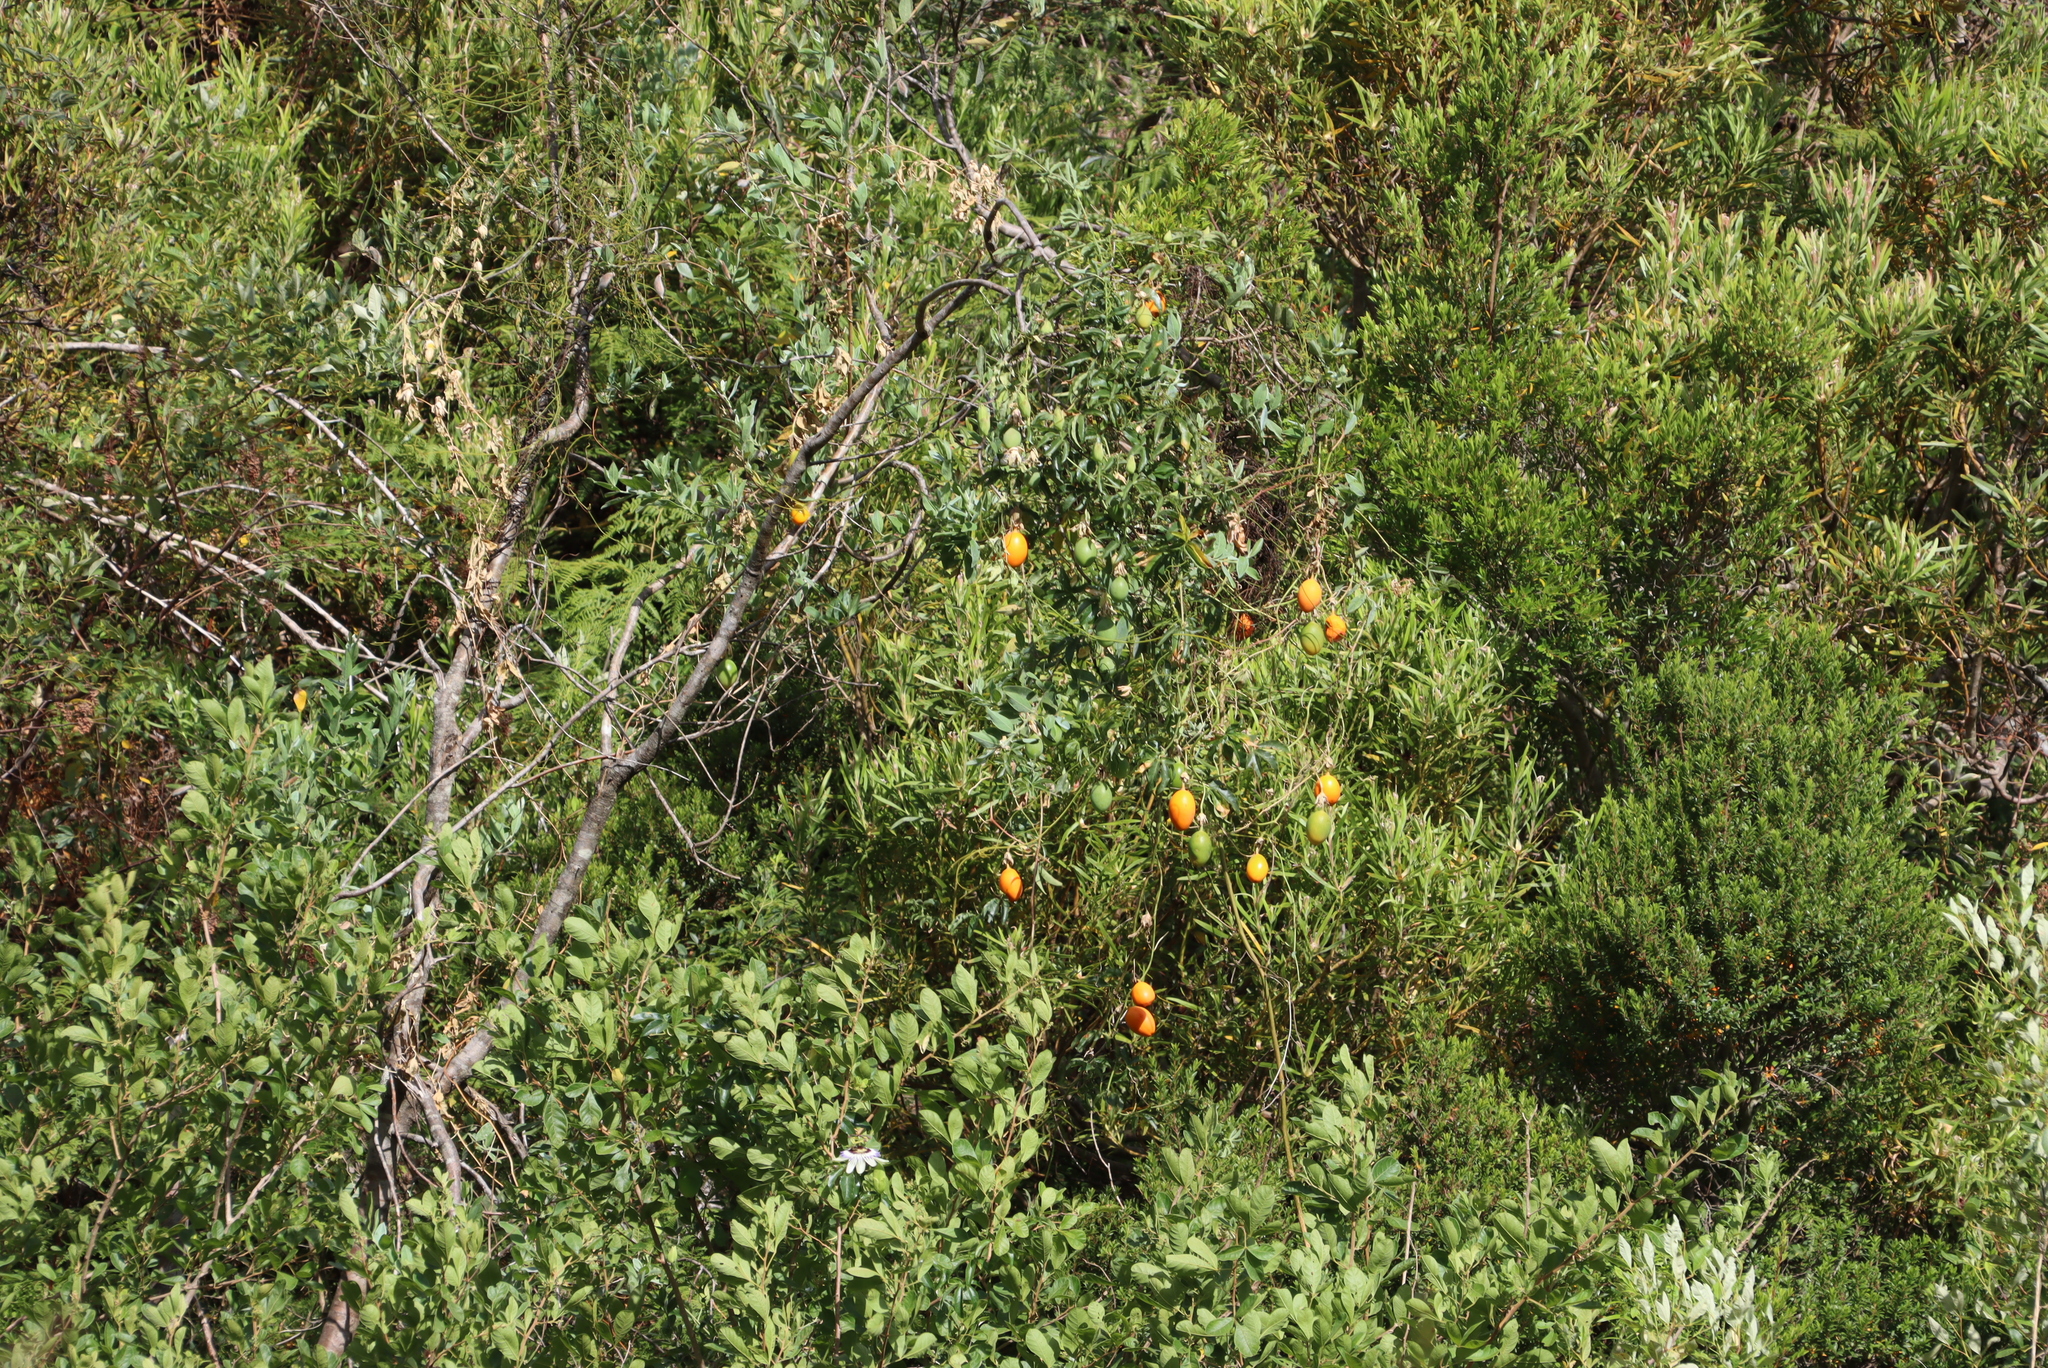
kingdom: Plantae
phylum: Tracheophyta
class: Magnoliopsida
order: Malpighiales
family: Passifloraceae
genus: Passiflora
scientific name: Passiflora caerulea
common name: Blue passionflower
